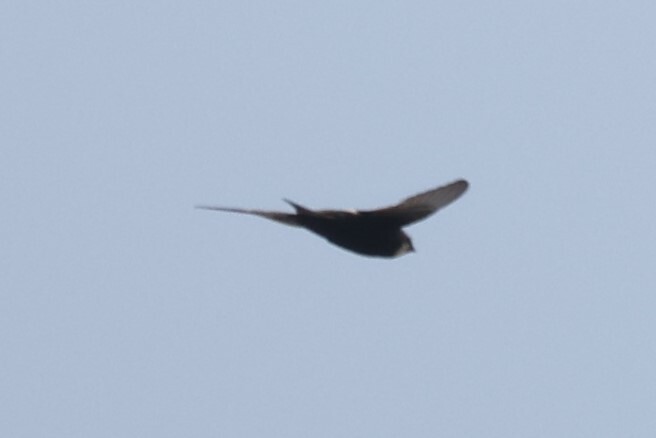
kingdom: Animalia
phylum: Chordata
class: Aves
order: Apodiformes
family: Apodidae
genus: Apus
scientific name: Apus caffer
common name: White-rumped swift
